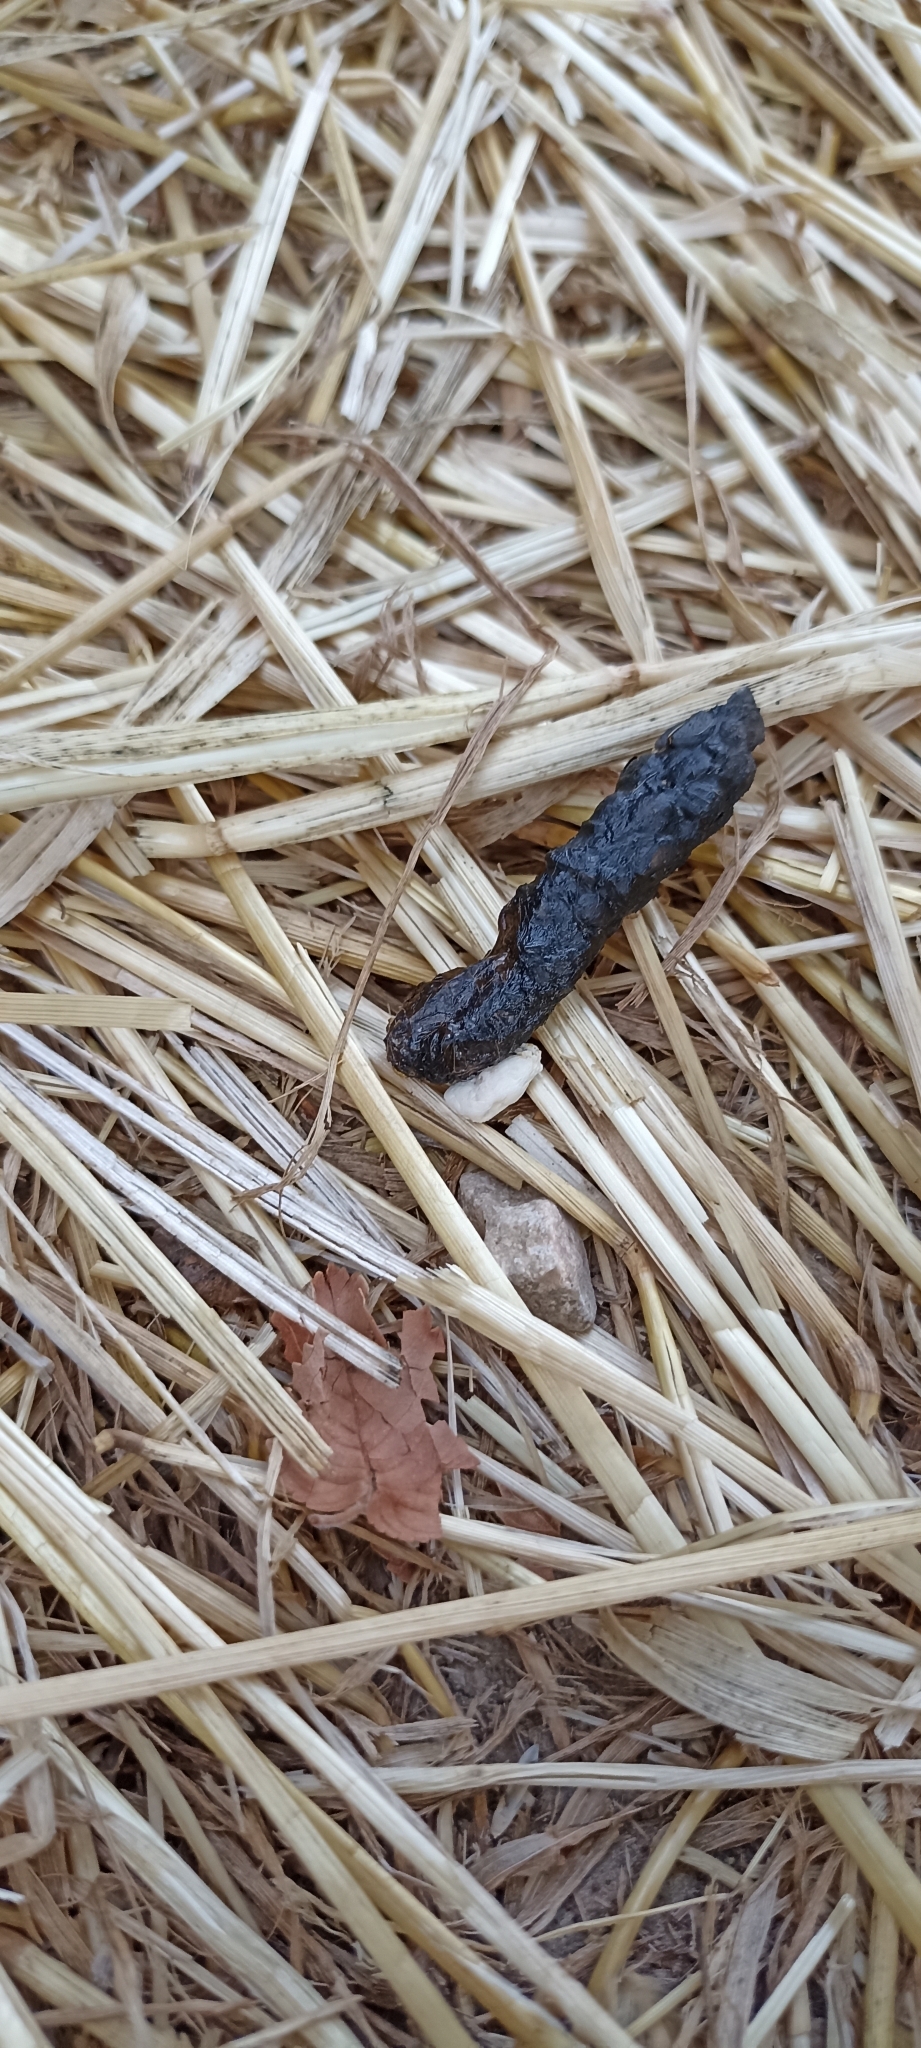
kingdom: Animalia
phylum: Chordata
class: Squamata
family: Lacertidae
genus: Timon
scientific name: Timon lepidus
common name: Ocellated lizard
